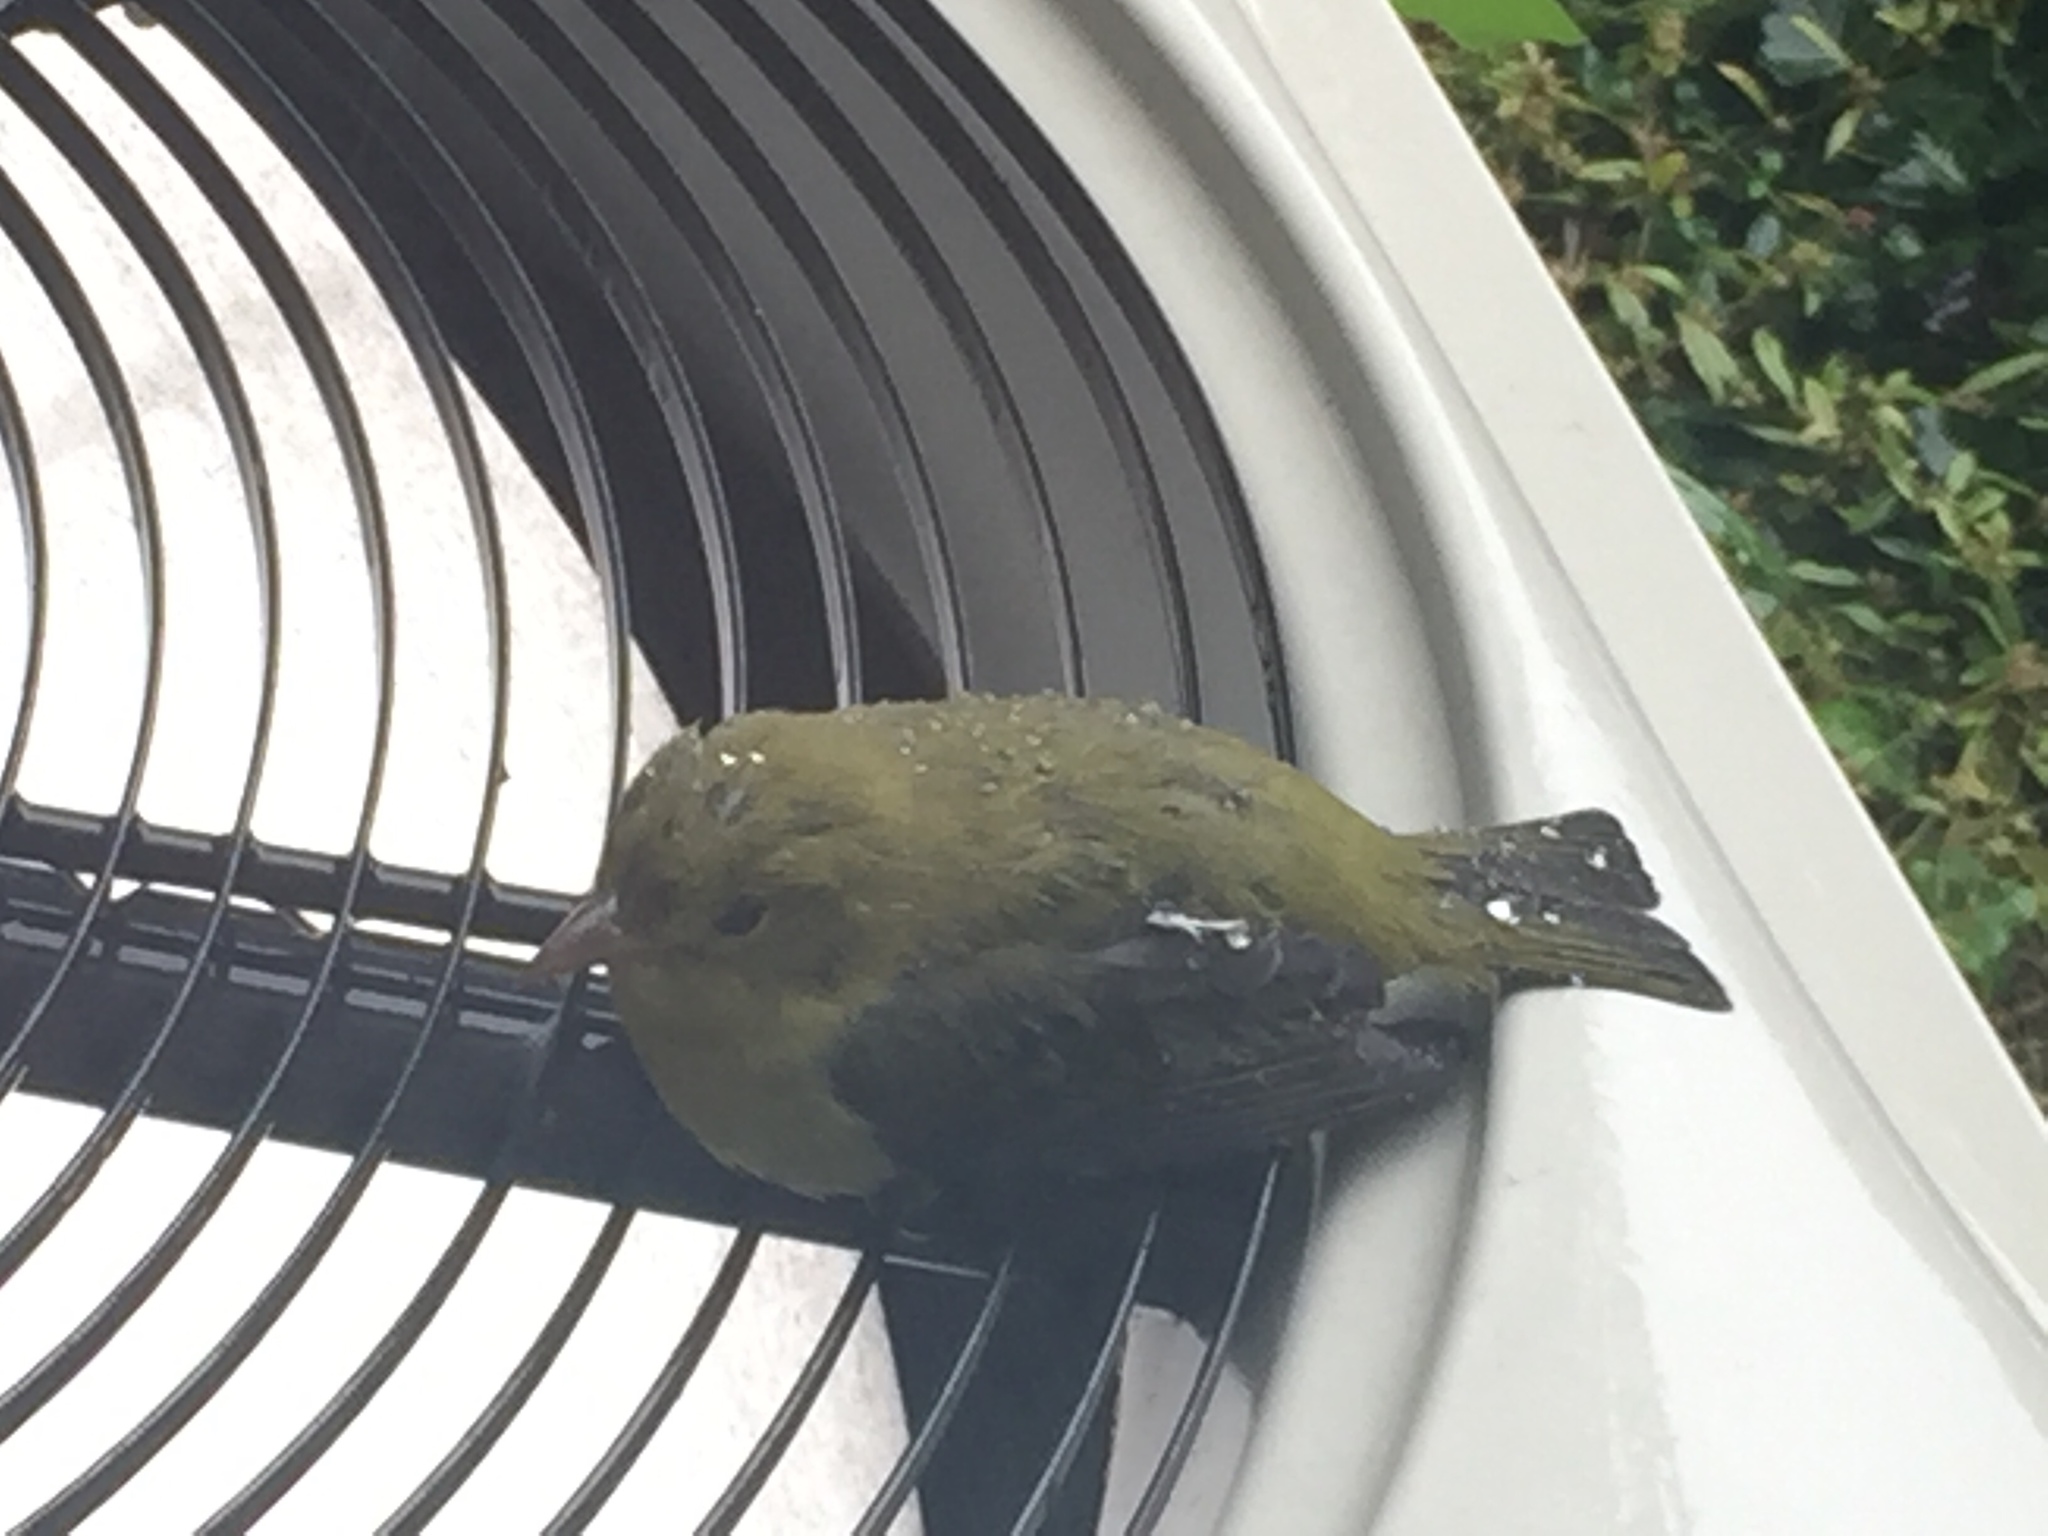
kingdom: Animalia
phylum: Chordata
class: Aves
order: Passeriformes
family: Cardinalidae
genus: Piranga
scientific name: Piranga olivacea
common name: Scarlet tanager
